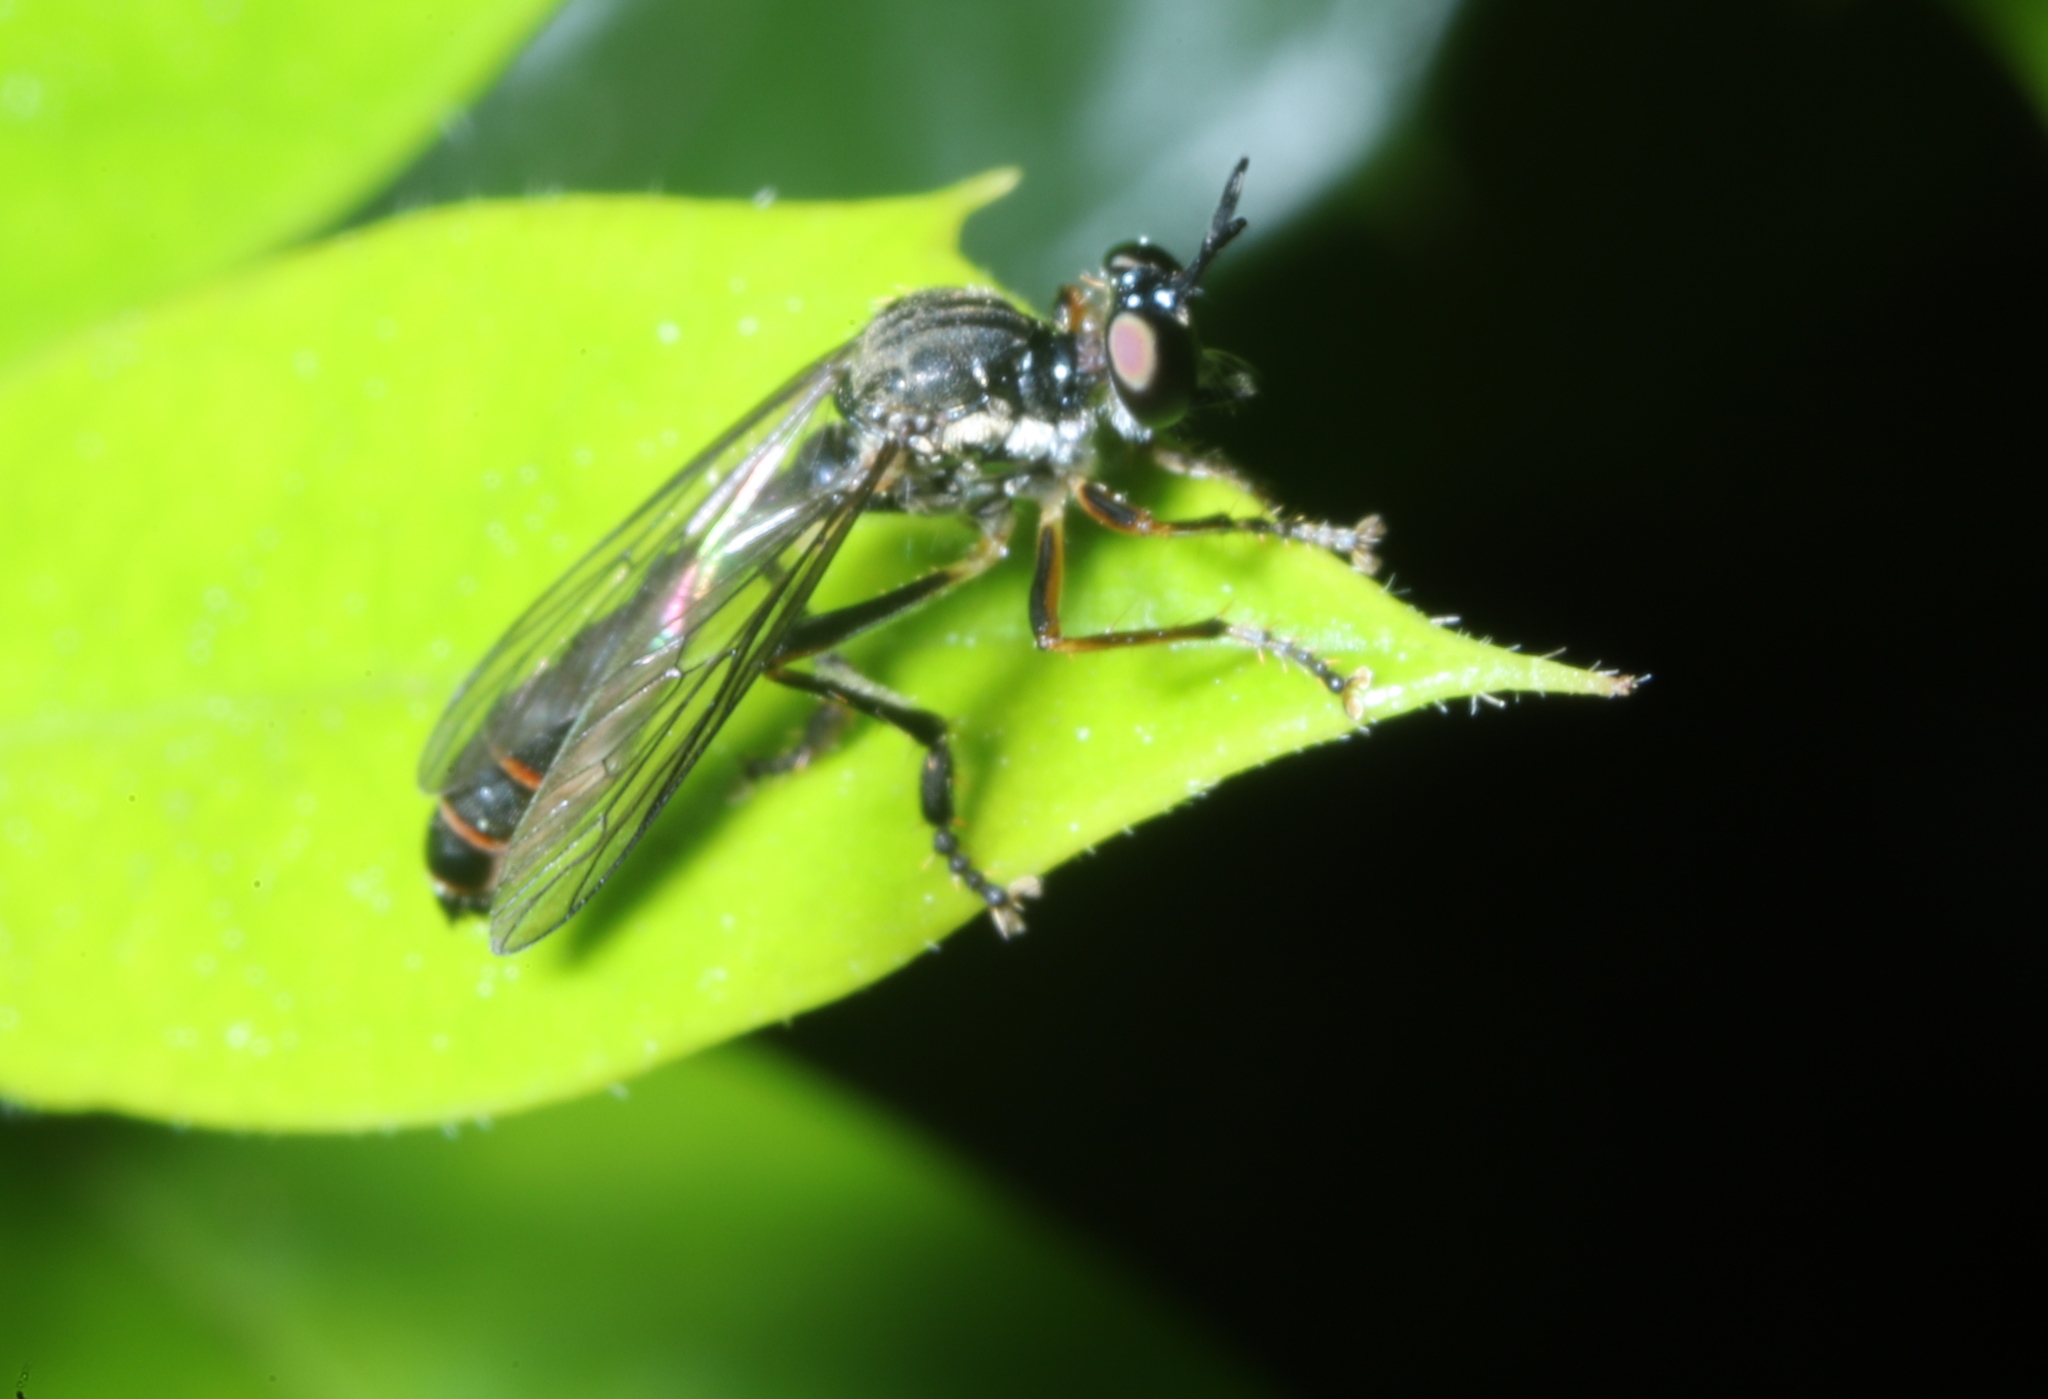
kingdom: Animalia
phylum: Arthropoda
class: Insecta
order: Diptera
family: Asilidae
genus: Dioctria
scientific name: Dioctria hyalipennis
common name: Stripe-legged robberfly
